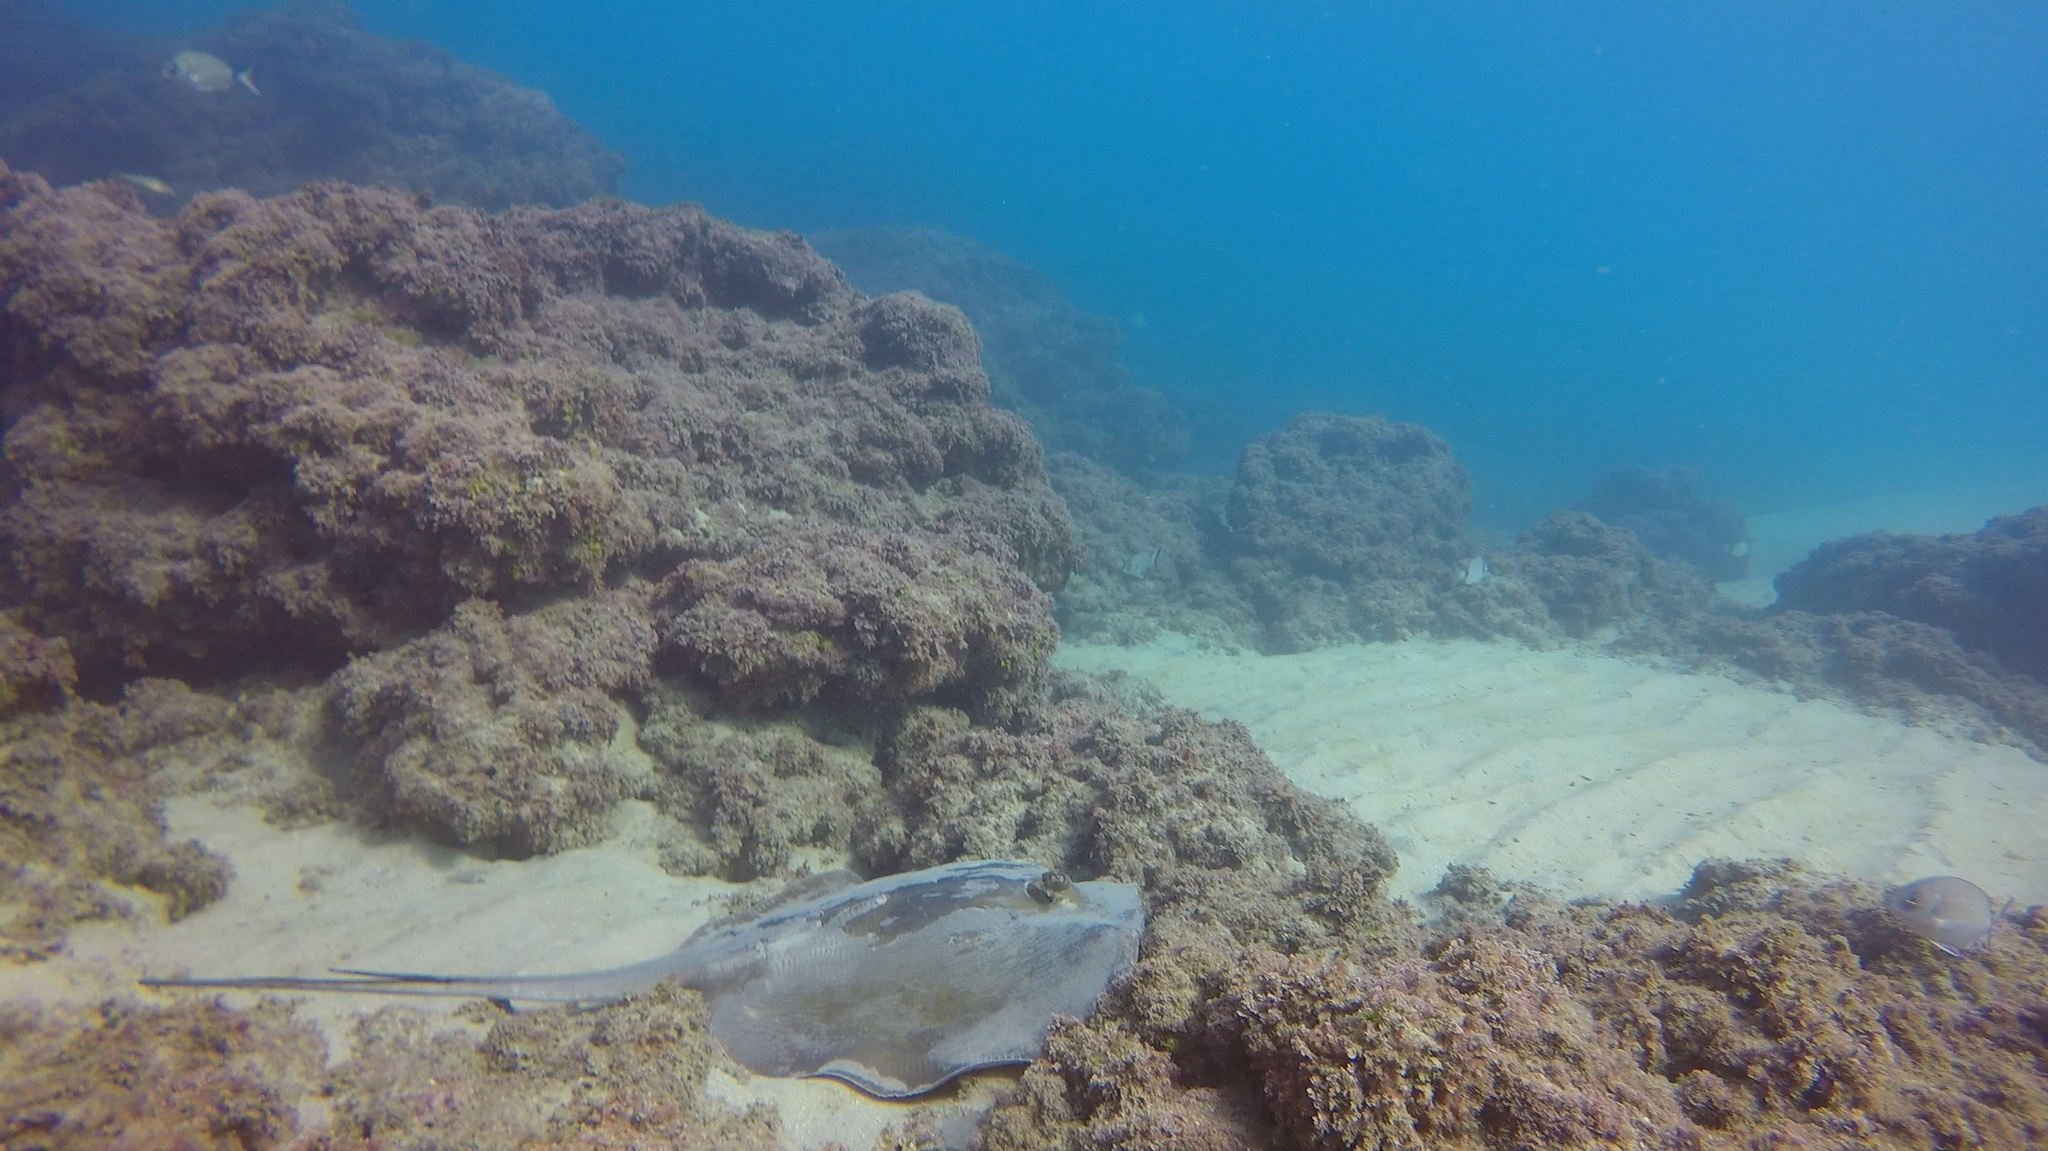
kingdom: Animalia
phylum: Chordata
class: Elasmobranchii
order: Myliobatiformes
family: Dasyatidae
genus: Dasyatis
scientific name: Dasyatis pastinaca
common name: Common stingray
